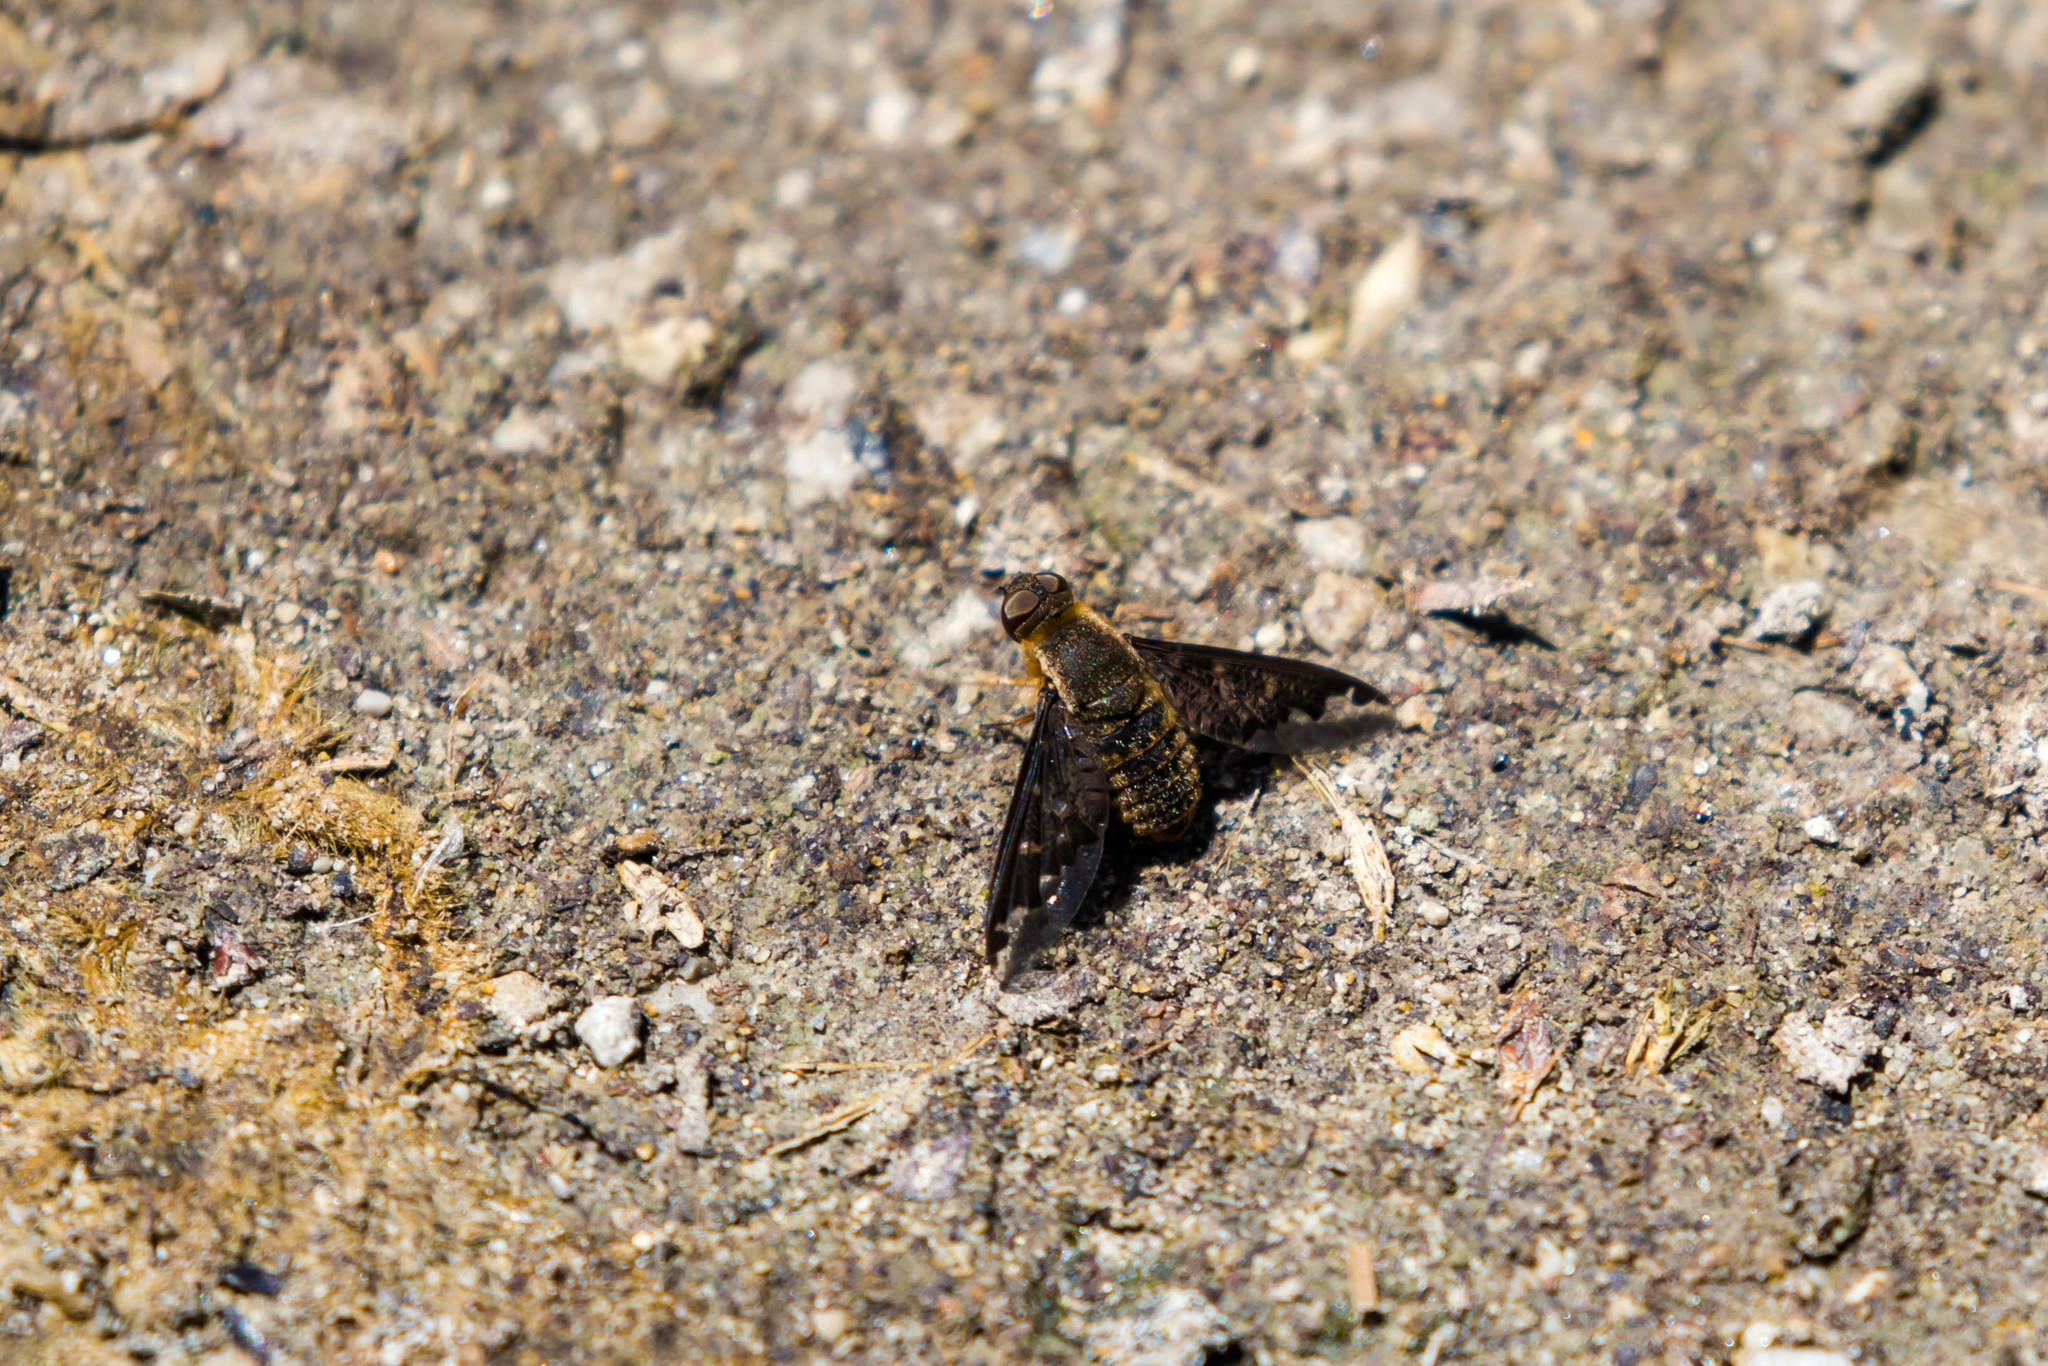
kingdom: Animalia
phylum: Arthropoda
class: Insecta
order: Diptera
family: Bombyliidae
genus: Hemipenthes
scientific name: Hemipenthes sinuosus
